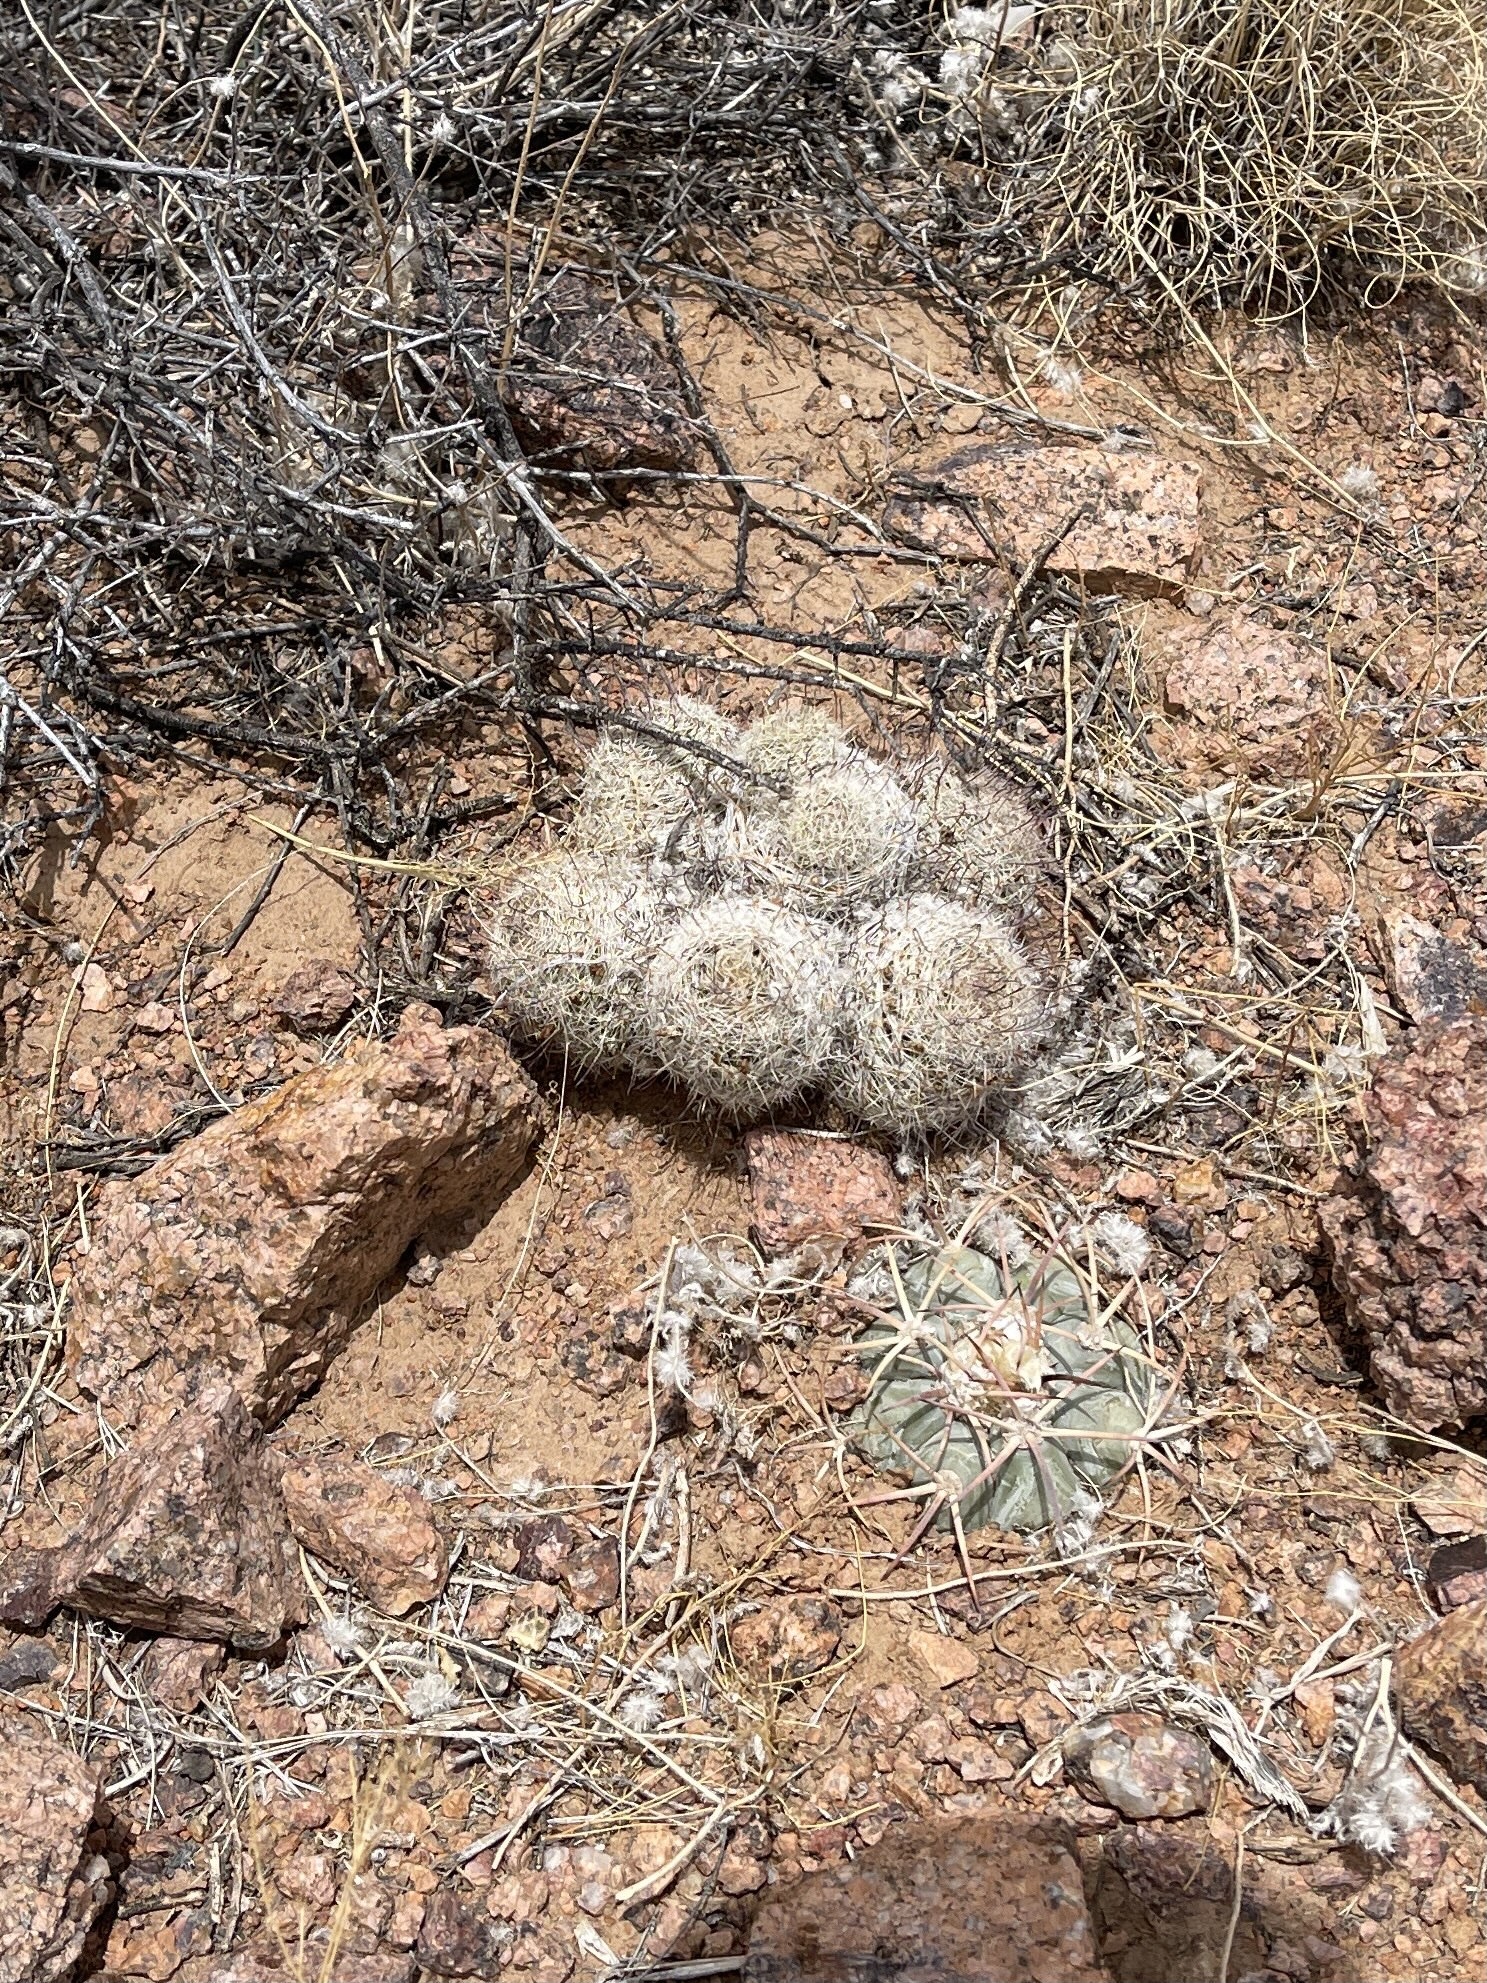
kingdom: Plantae
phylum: Tracheophyta
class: Magnoliopsida
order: Caryophyllales
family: Cactaceae
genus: Cochemiea
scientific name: Cochemiea grahamii
